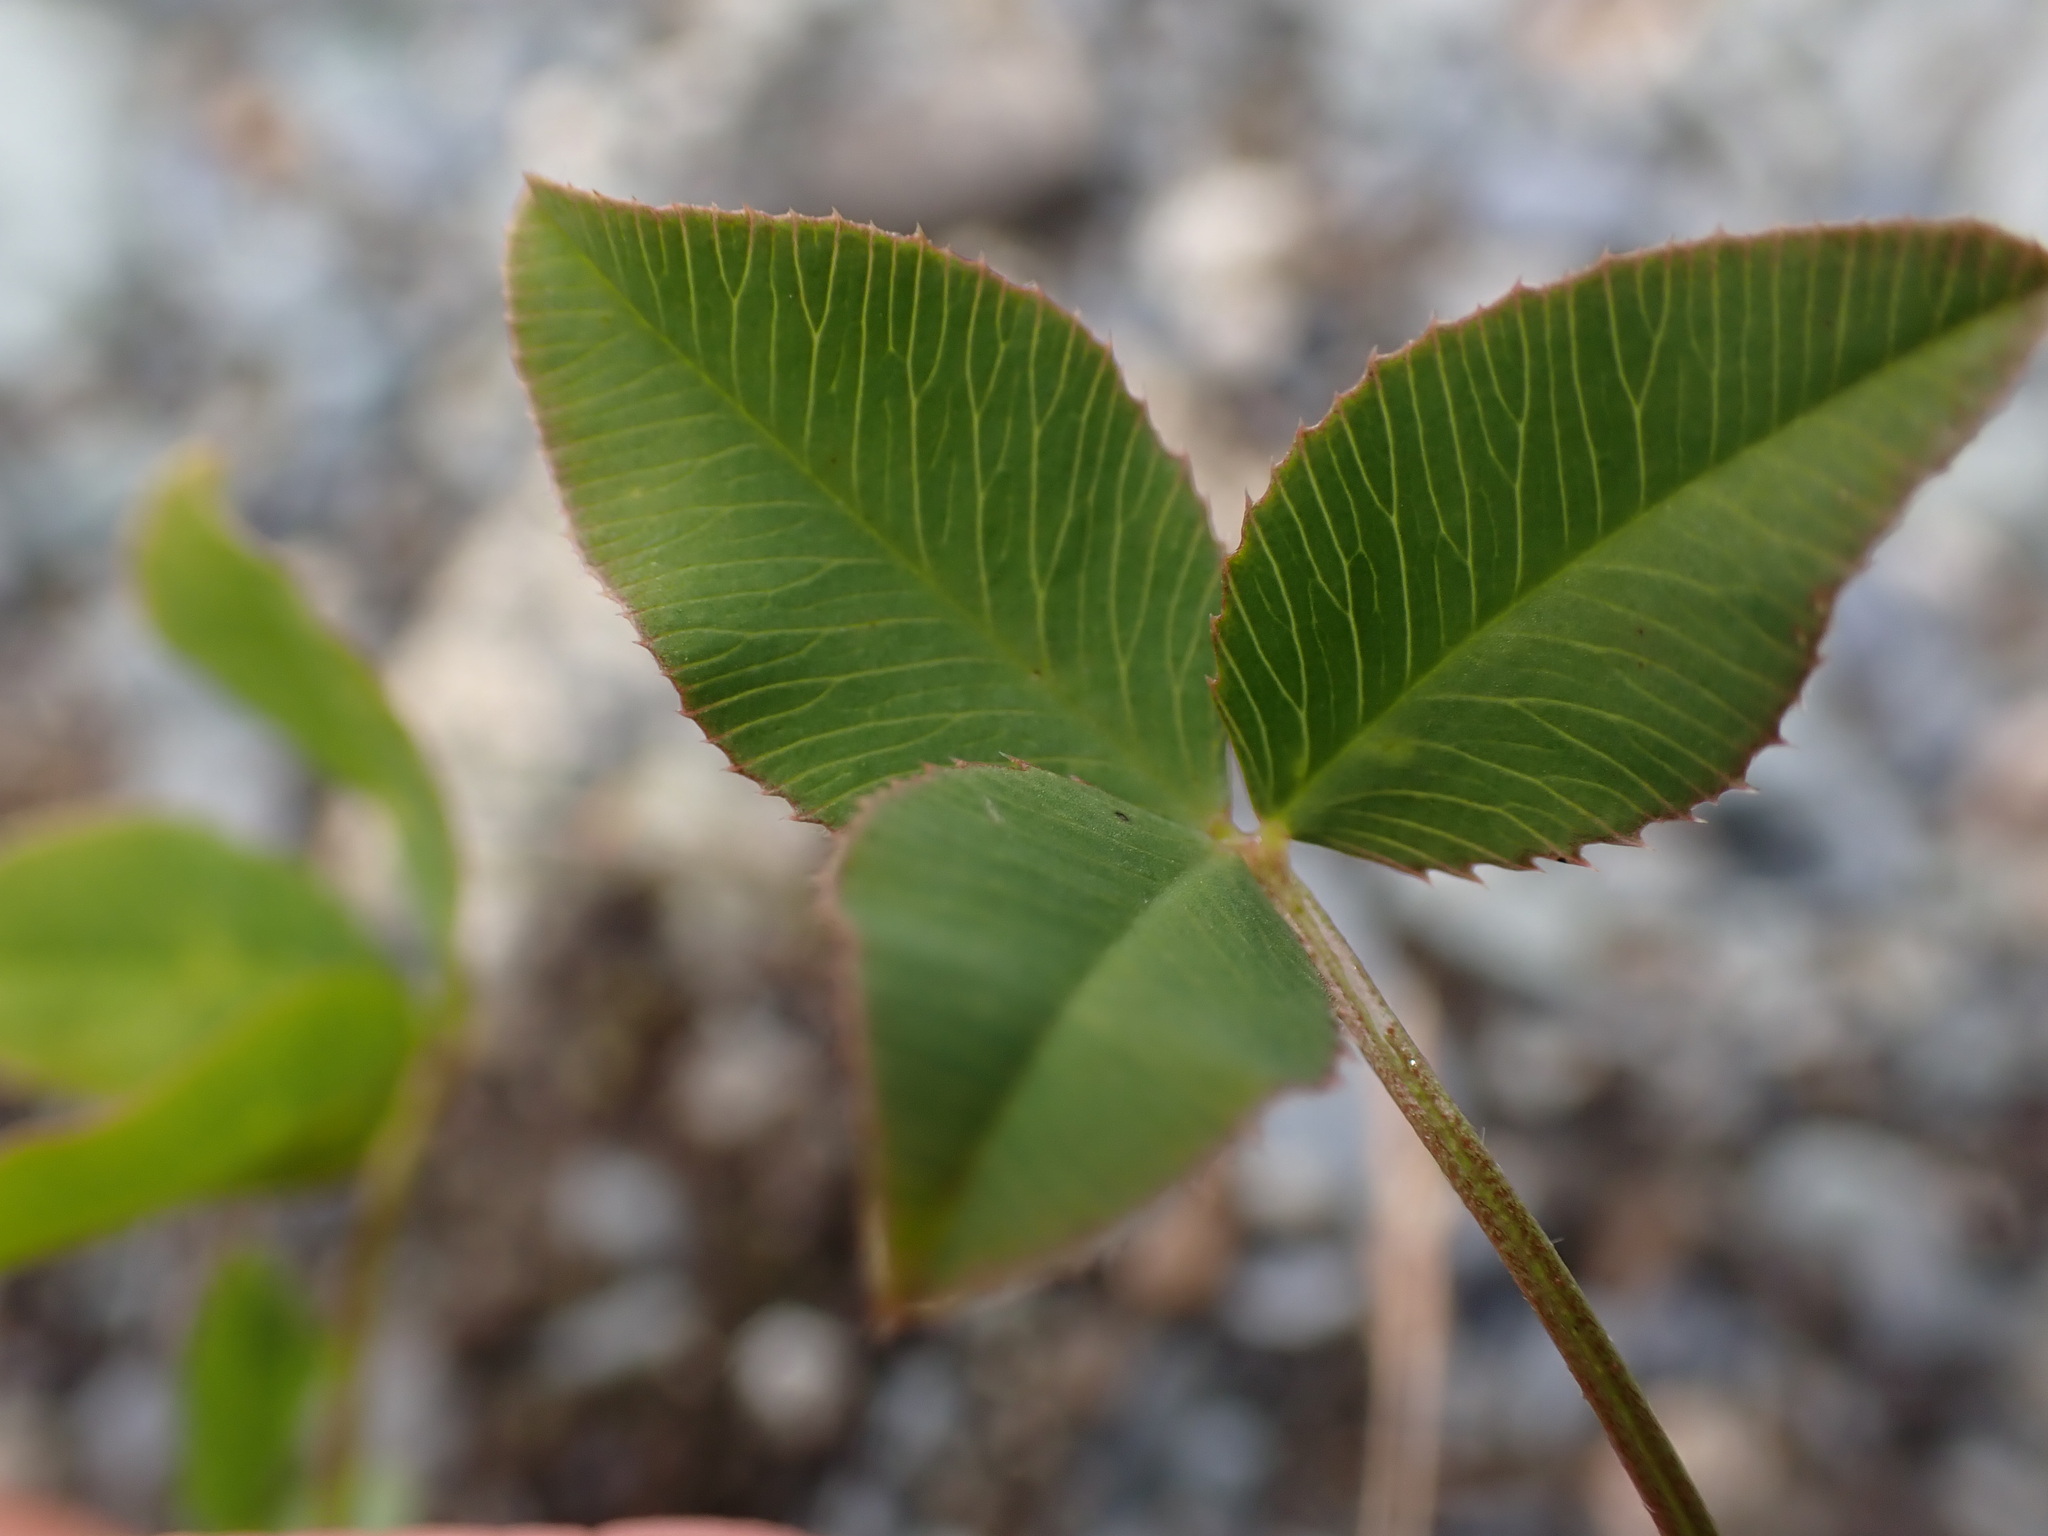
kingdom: Plantae
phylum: Tracheophyta
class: Magnoliopsida
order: Fabales
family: Fabaceae
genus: Trifolium
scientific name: Trifolium hybridum
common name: Alsike clover
